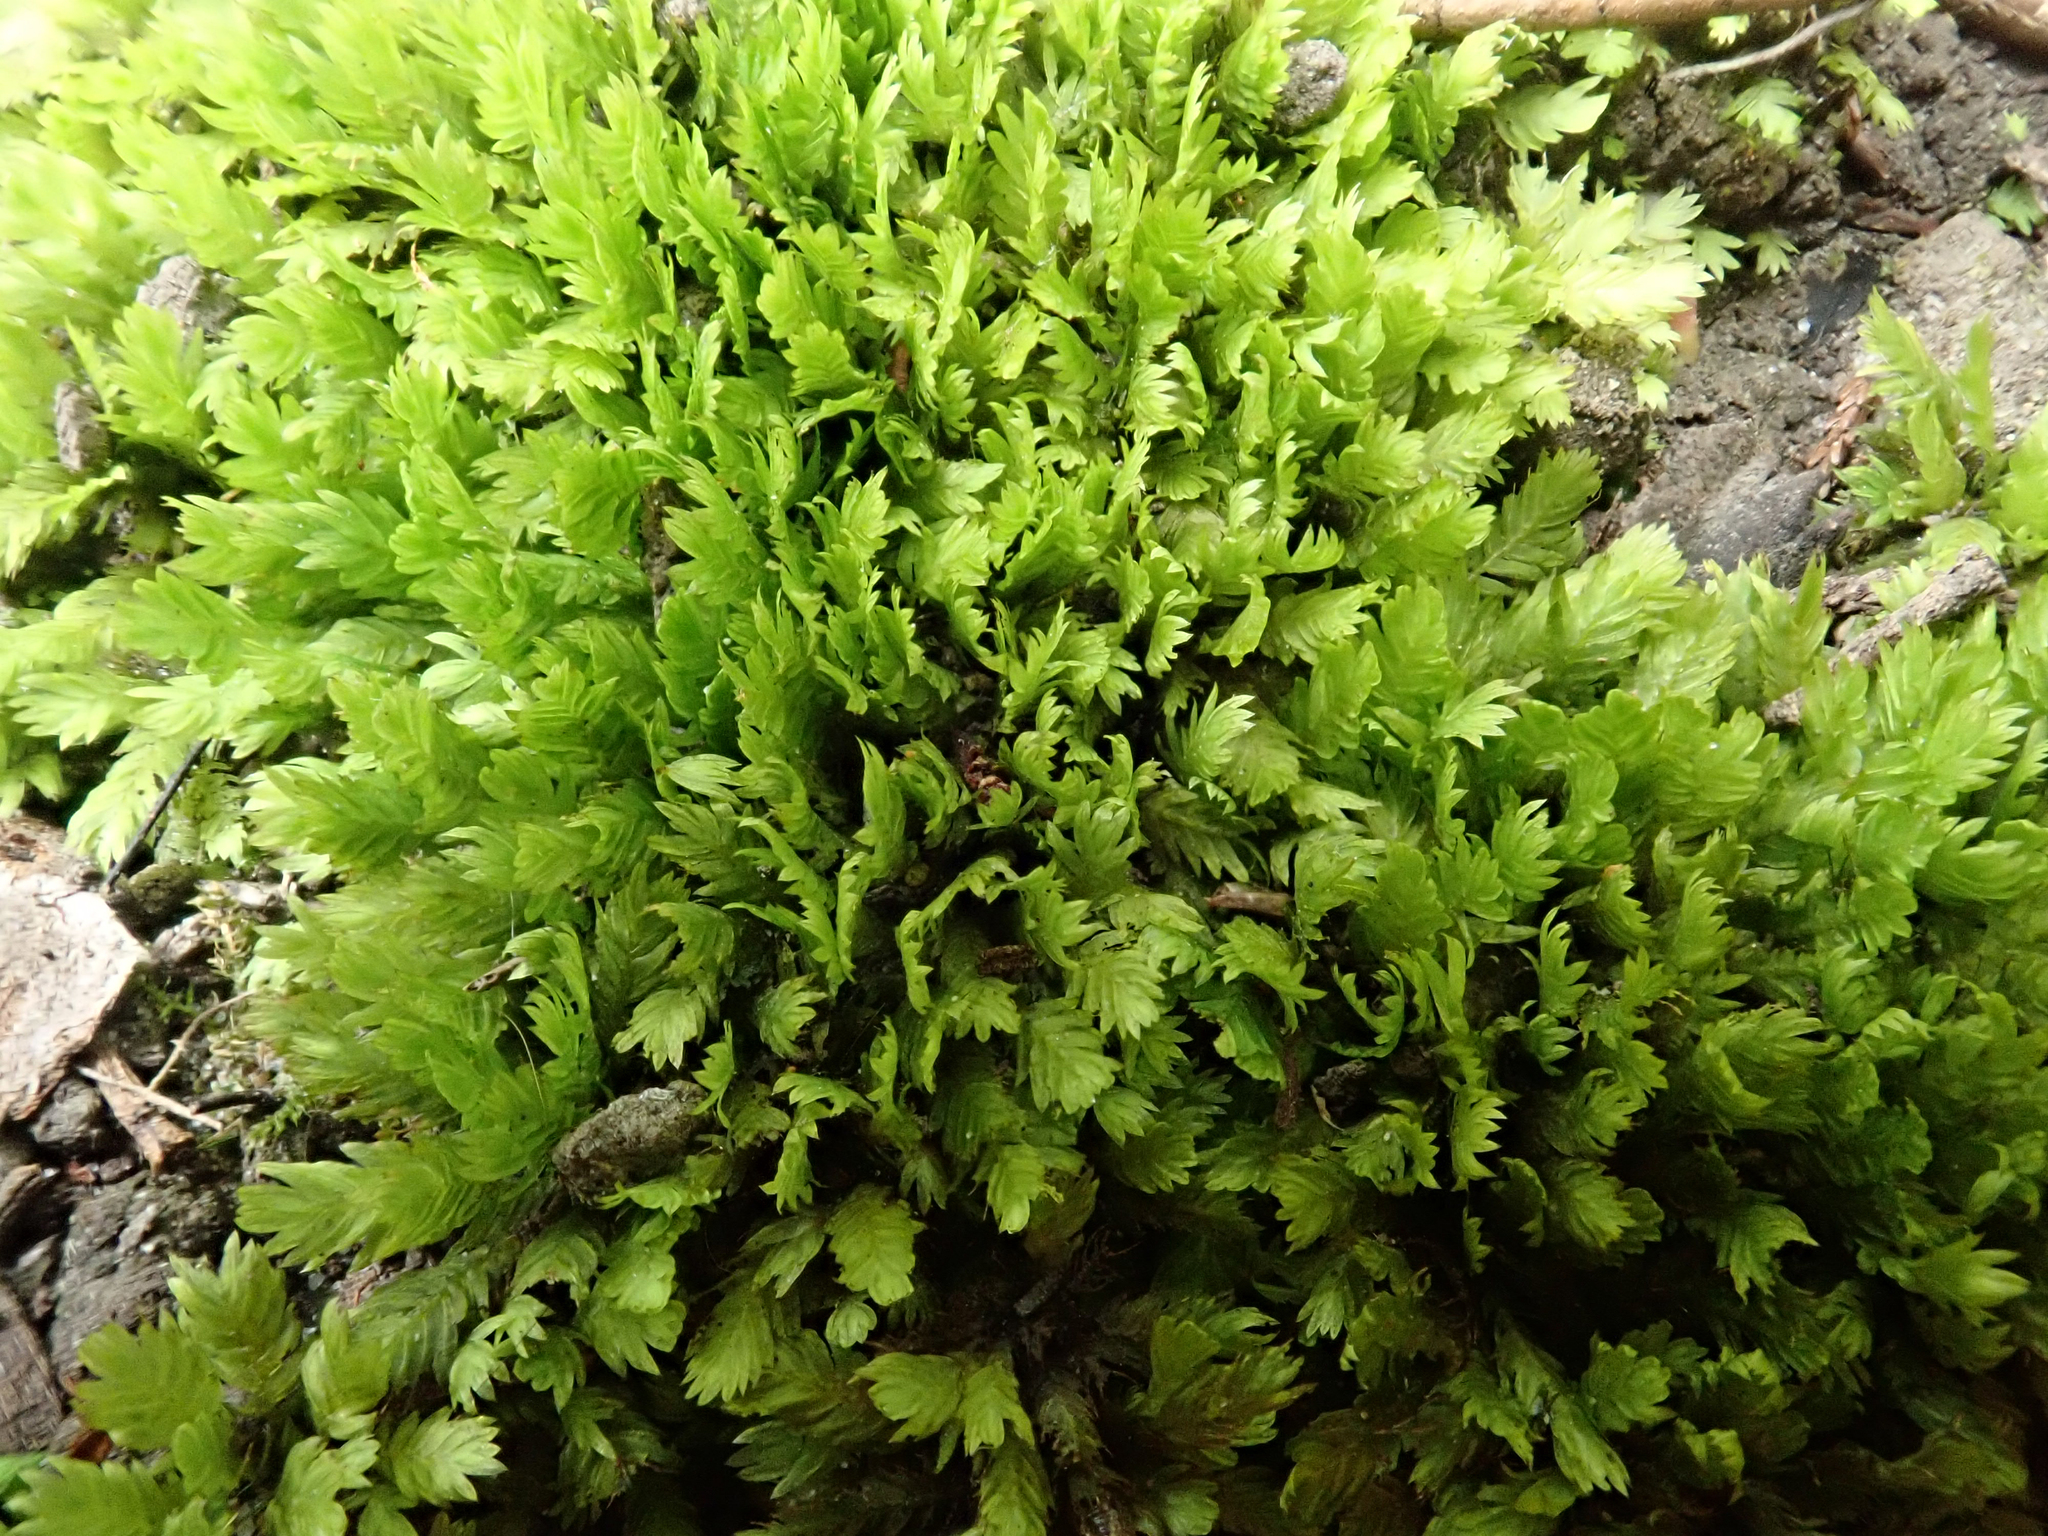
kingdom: Plantae
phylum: Bryophyta
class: Bryopsida
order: Dicranales
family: Fissidentaceae
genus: Fissidens
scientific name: Fissidens taxifolius
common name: Yew-leaved pocket moss
